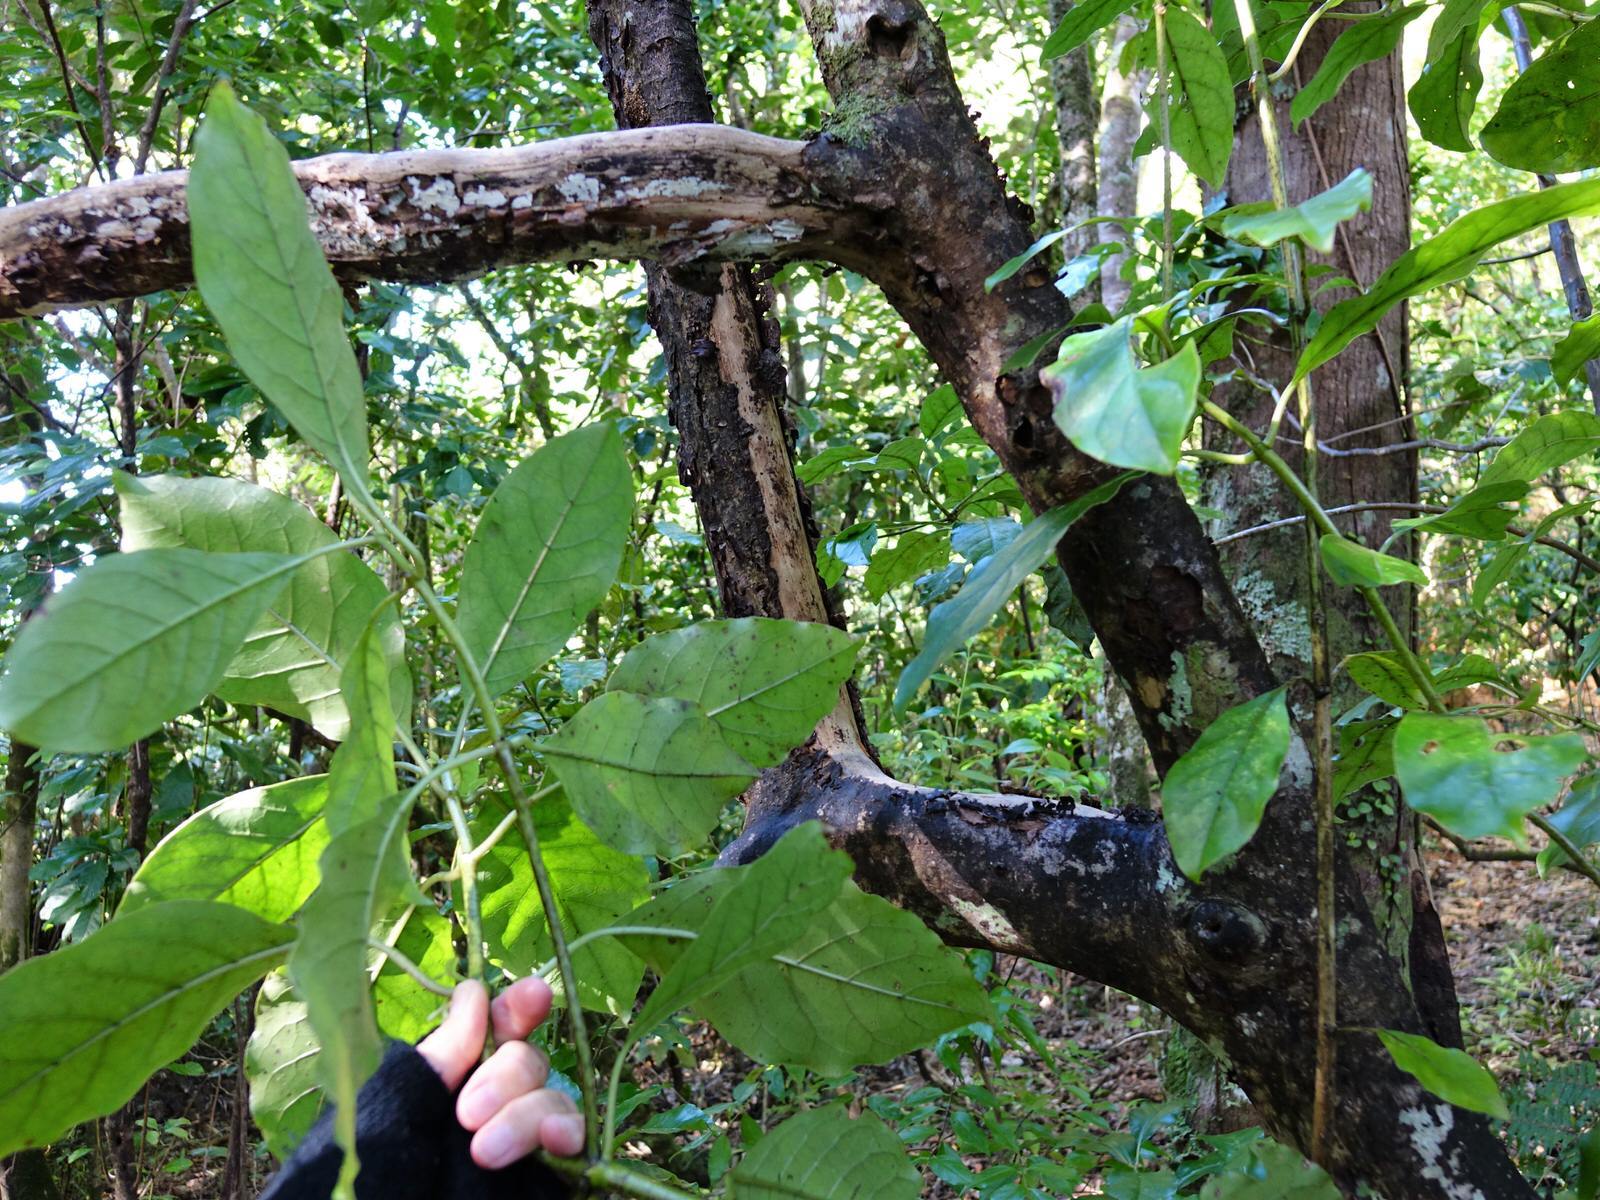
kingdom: Plantae
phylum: Tracheophyta
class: Magnoliopsida
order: Gentianales
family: Rubiaceae
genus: Coprosma
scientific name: Coprosma autumnalis
